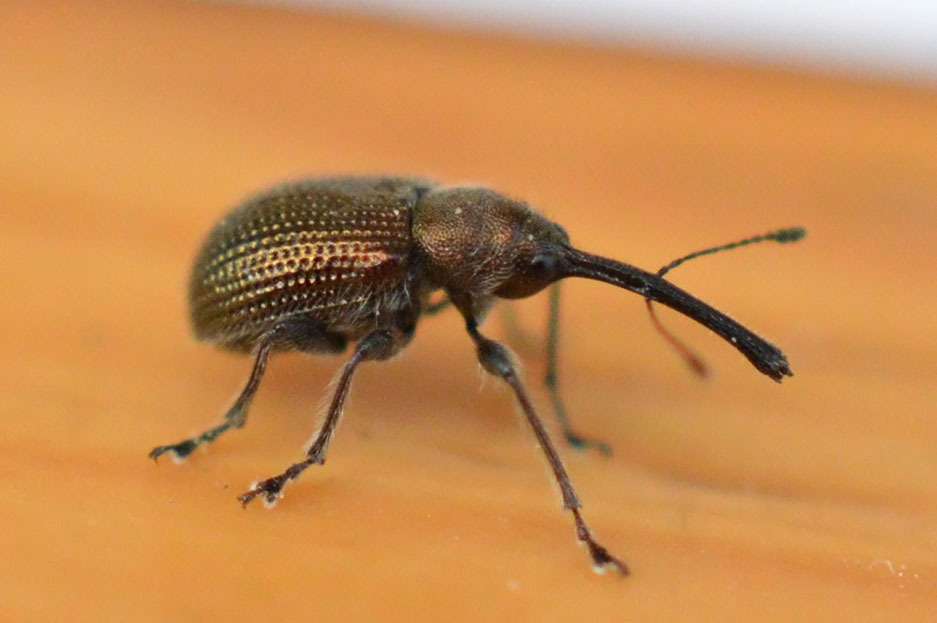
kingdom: Animalia
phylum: Arthropoda
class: Insecta
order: Coleoptera
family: Attelabidae
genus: Neocoenorrhinus
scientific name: Neocoenorrhinus minutus
